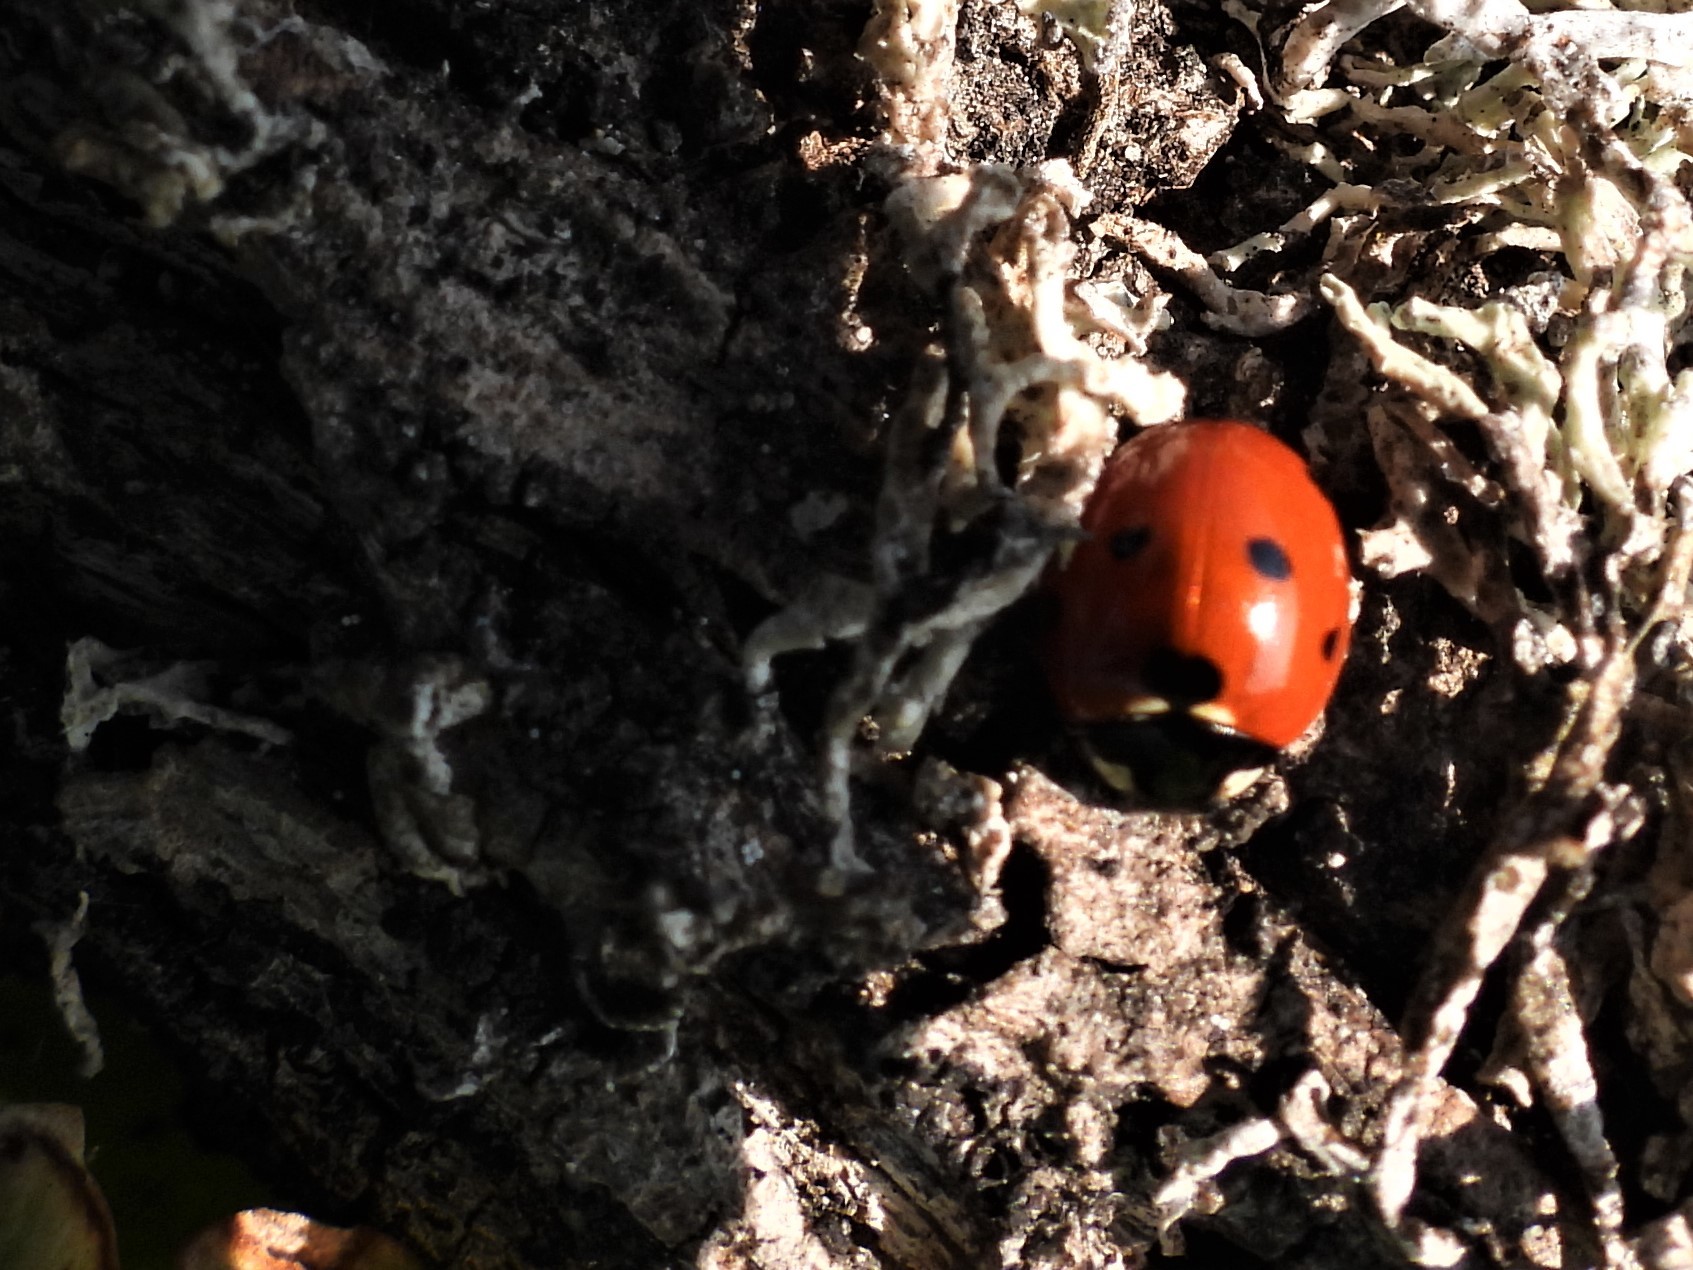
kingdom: Animalia
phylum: Arthropoda
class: Insecta
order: Coleoptera
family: Coccinellidae
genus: Coccinella
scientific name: Coccinella septempunctata
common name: Sevenspotted lady beetle
